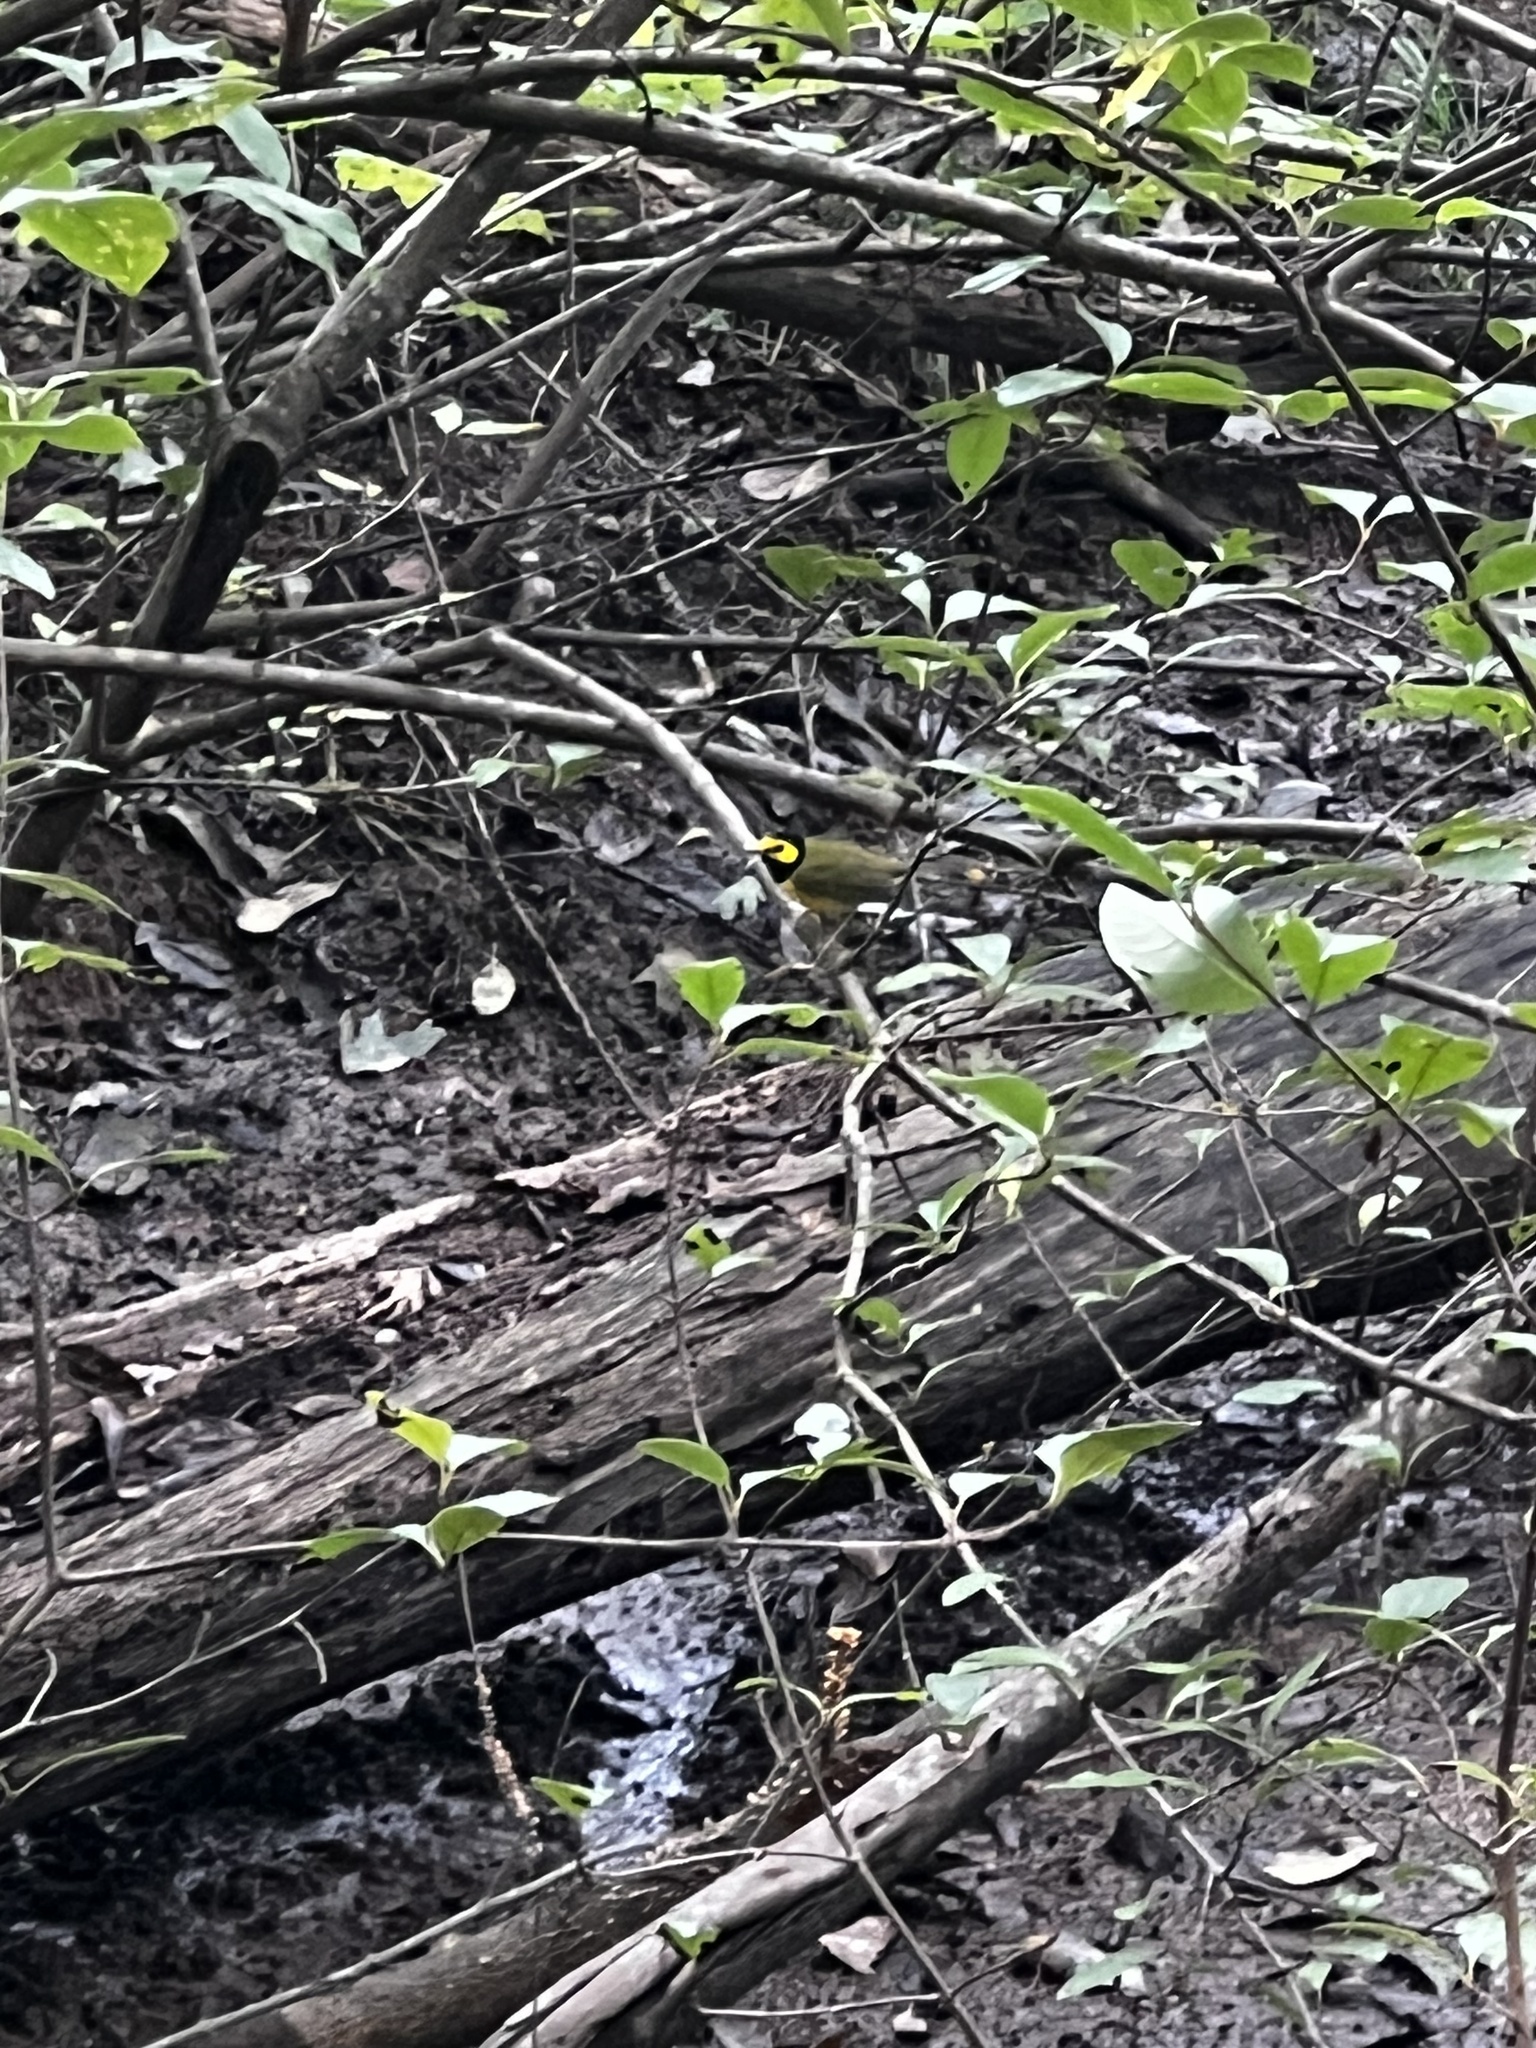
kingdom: Animalia
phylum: Chordata
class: Aves
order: Passeriformes
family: Parulidae
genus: Setophaga
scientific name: Setophaga citrina
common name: Hooded warbler
